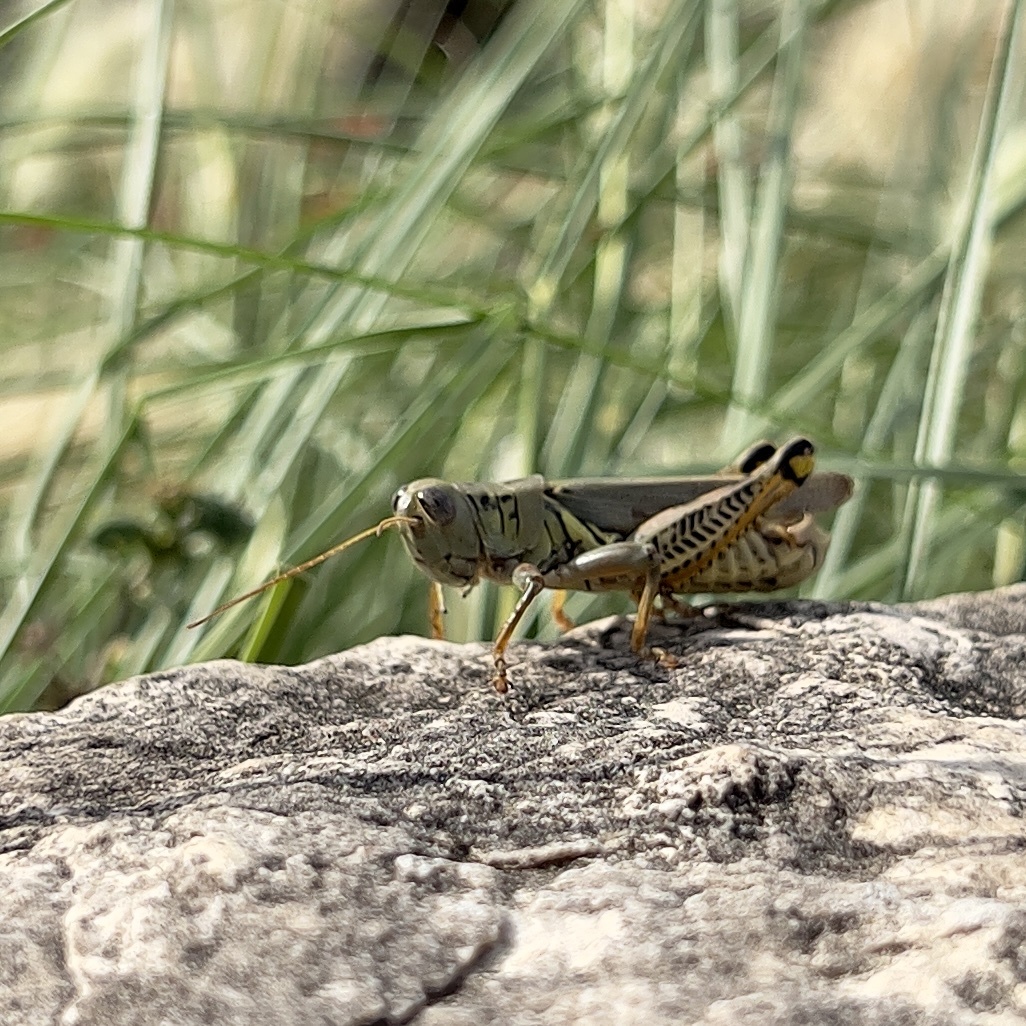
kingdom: Animalia
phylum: Arthropoda
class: Insecta
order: Orthoptera
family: Acrididae
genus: Melanoplus
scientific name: Melanoplus differentialis
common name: Differential grasshopper
